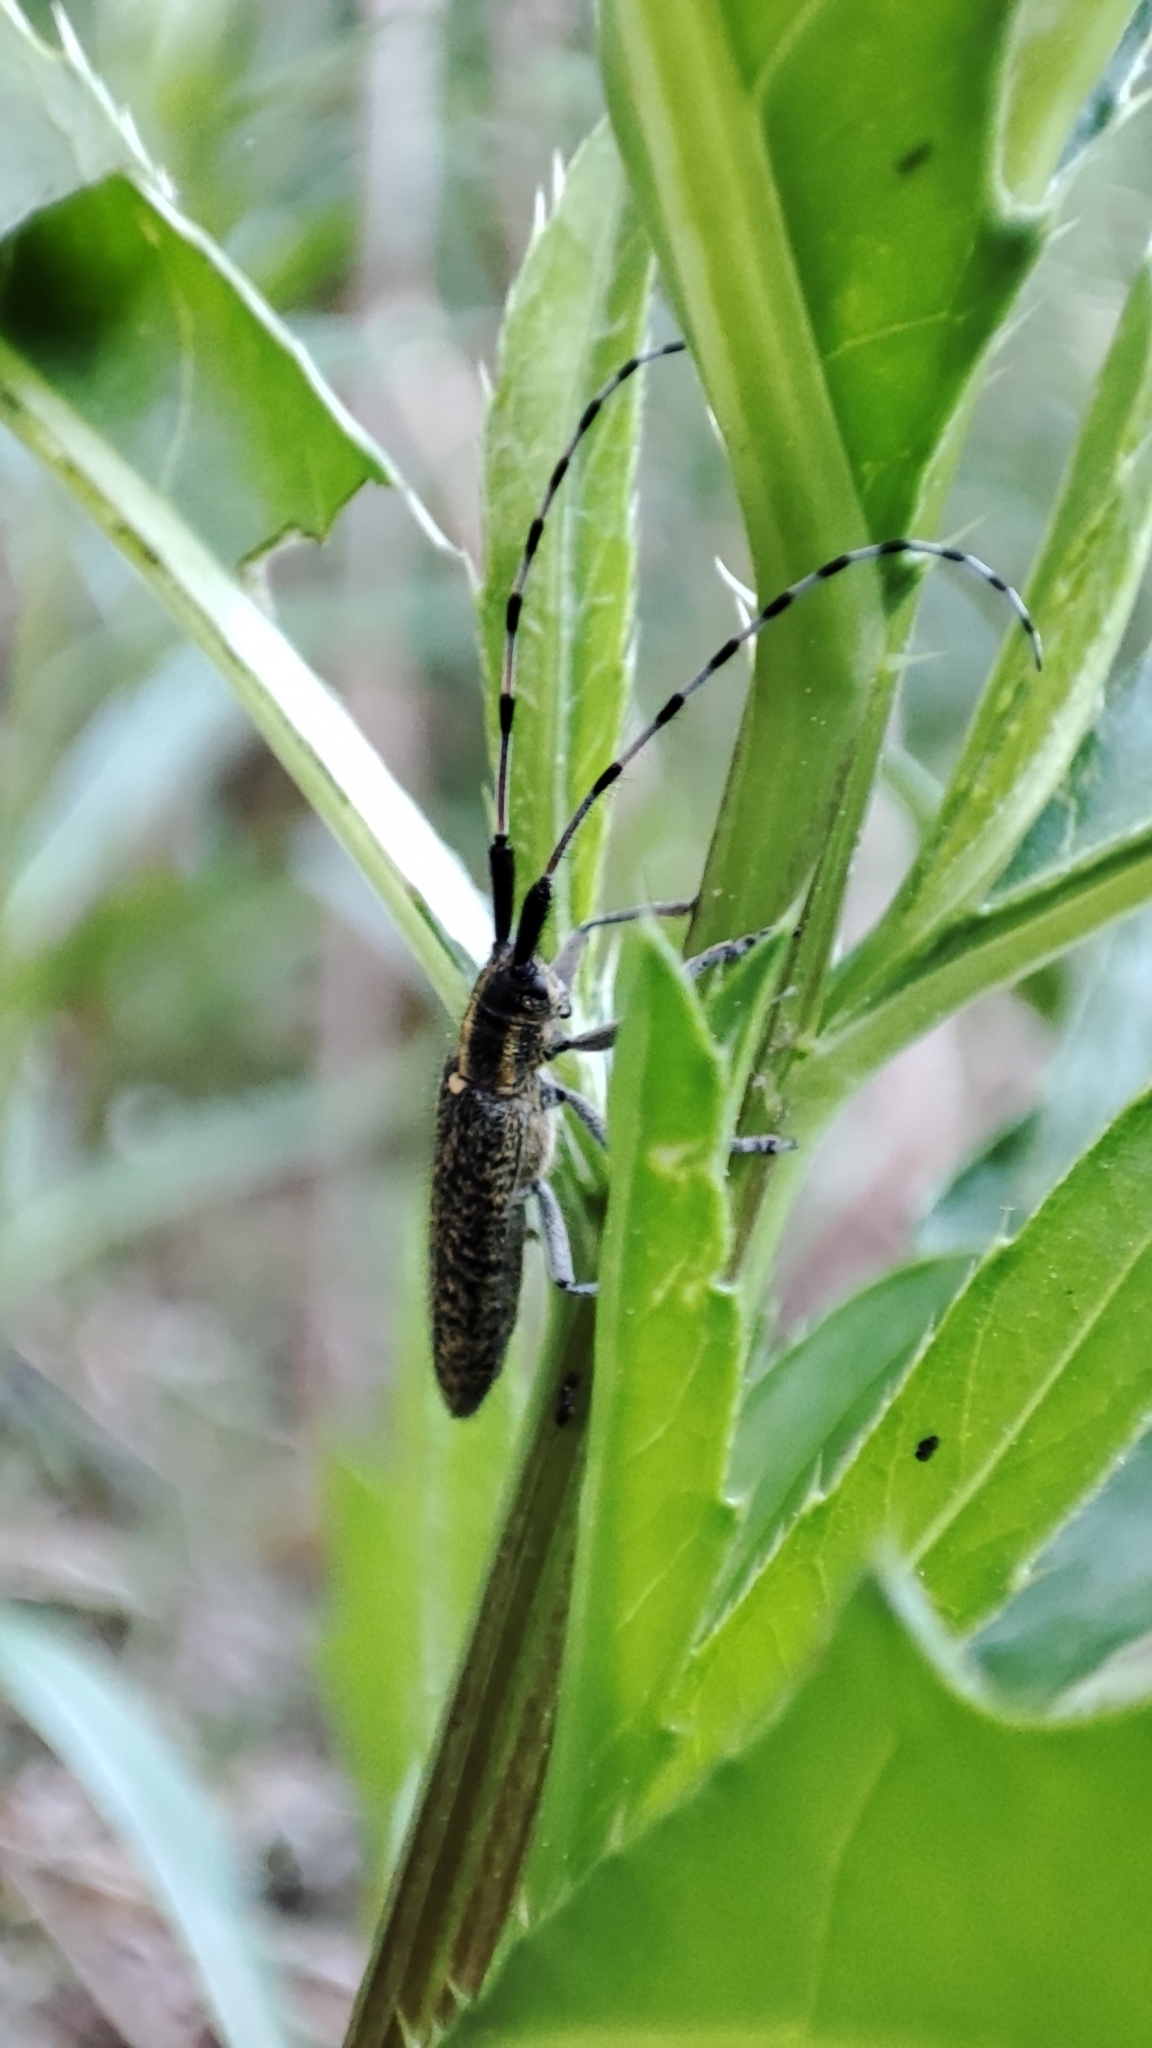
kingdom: Animalia
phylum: Arthropoda
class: Insecta
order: Coleoptera
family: Cerambycidae
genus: Agapanthia
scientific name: Agapanthia villosoviridescens
